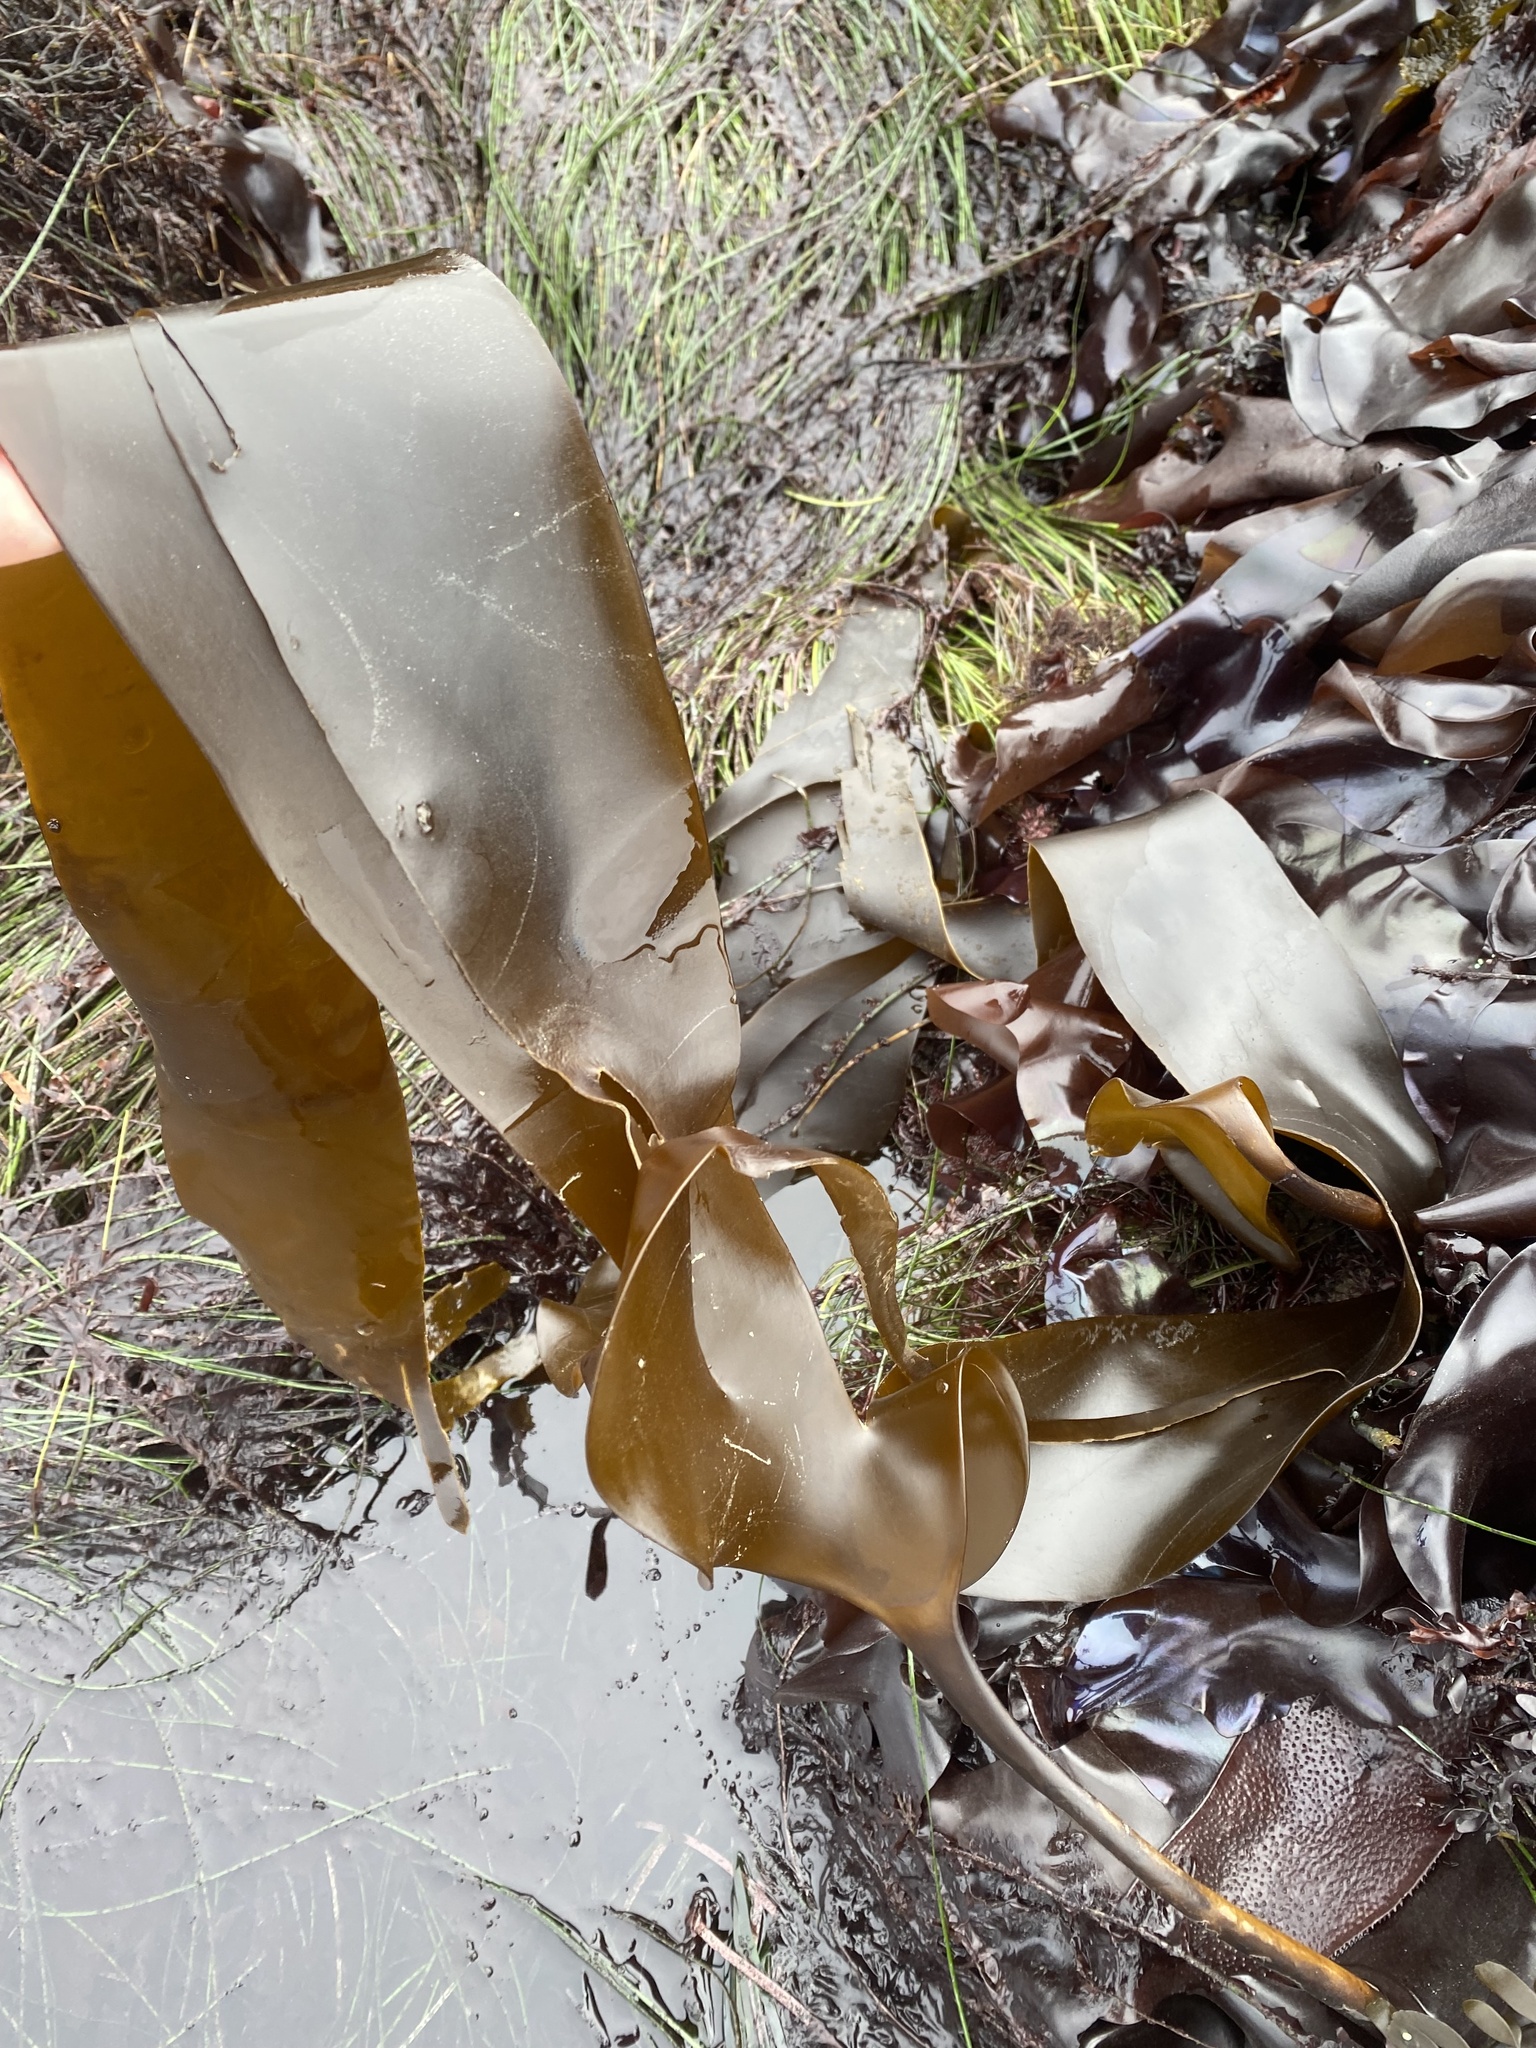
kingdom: Chromista
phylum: Ochrophyta
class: Phaeophyceae
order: Laminariales
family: Laminariaceae
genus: Laminaria
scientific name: Laminaria setchellii
